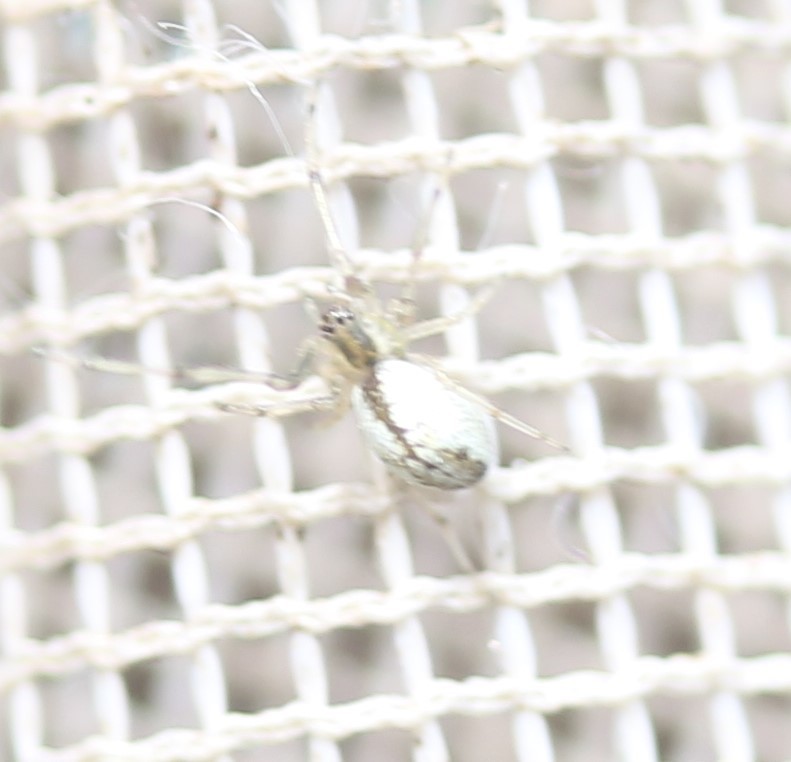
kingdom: Animalia
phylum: Arthropoda
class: Arachnida
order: Araneae
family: Tetragnathidae
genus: Leucauge
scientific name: Leucauge venusta
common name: Longjawed orb weavers
